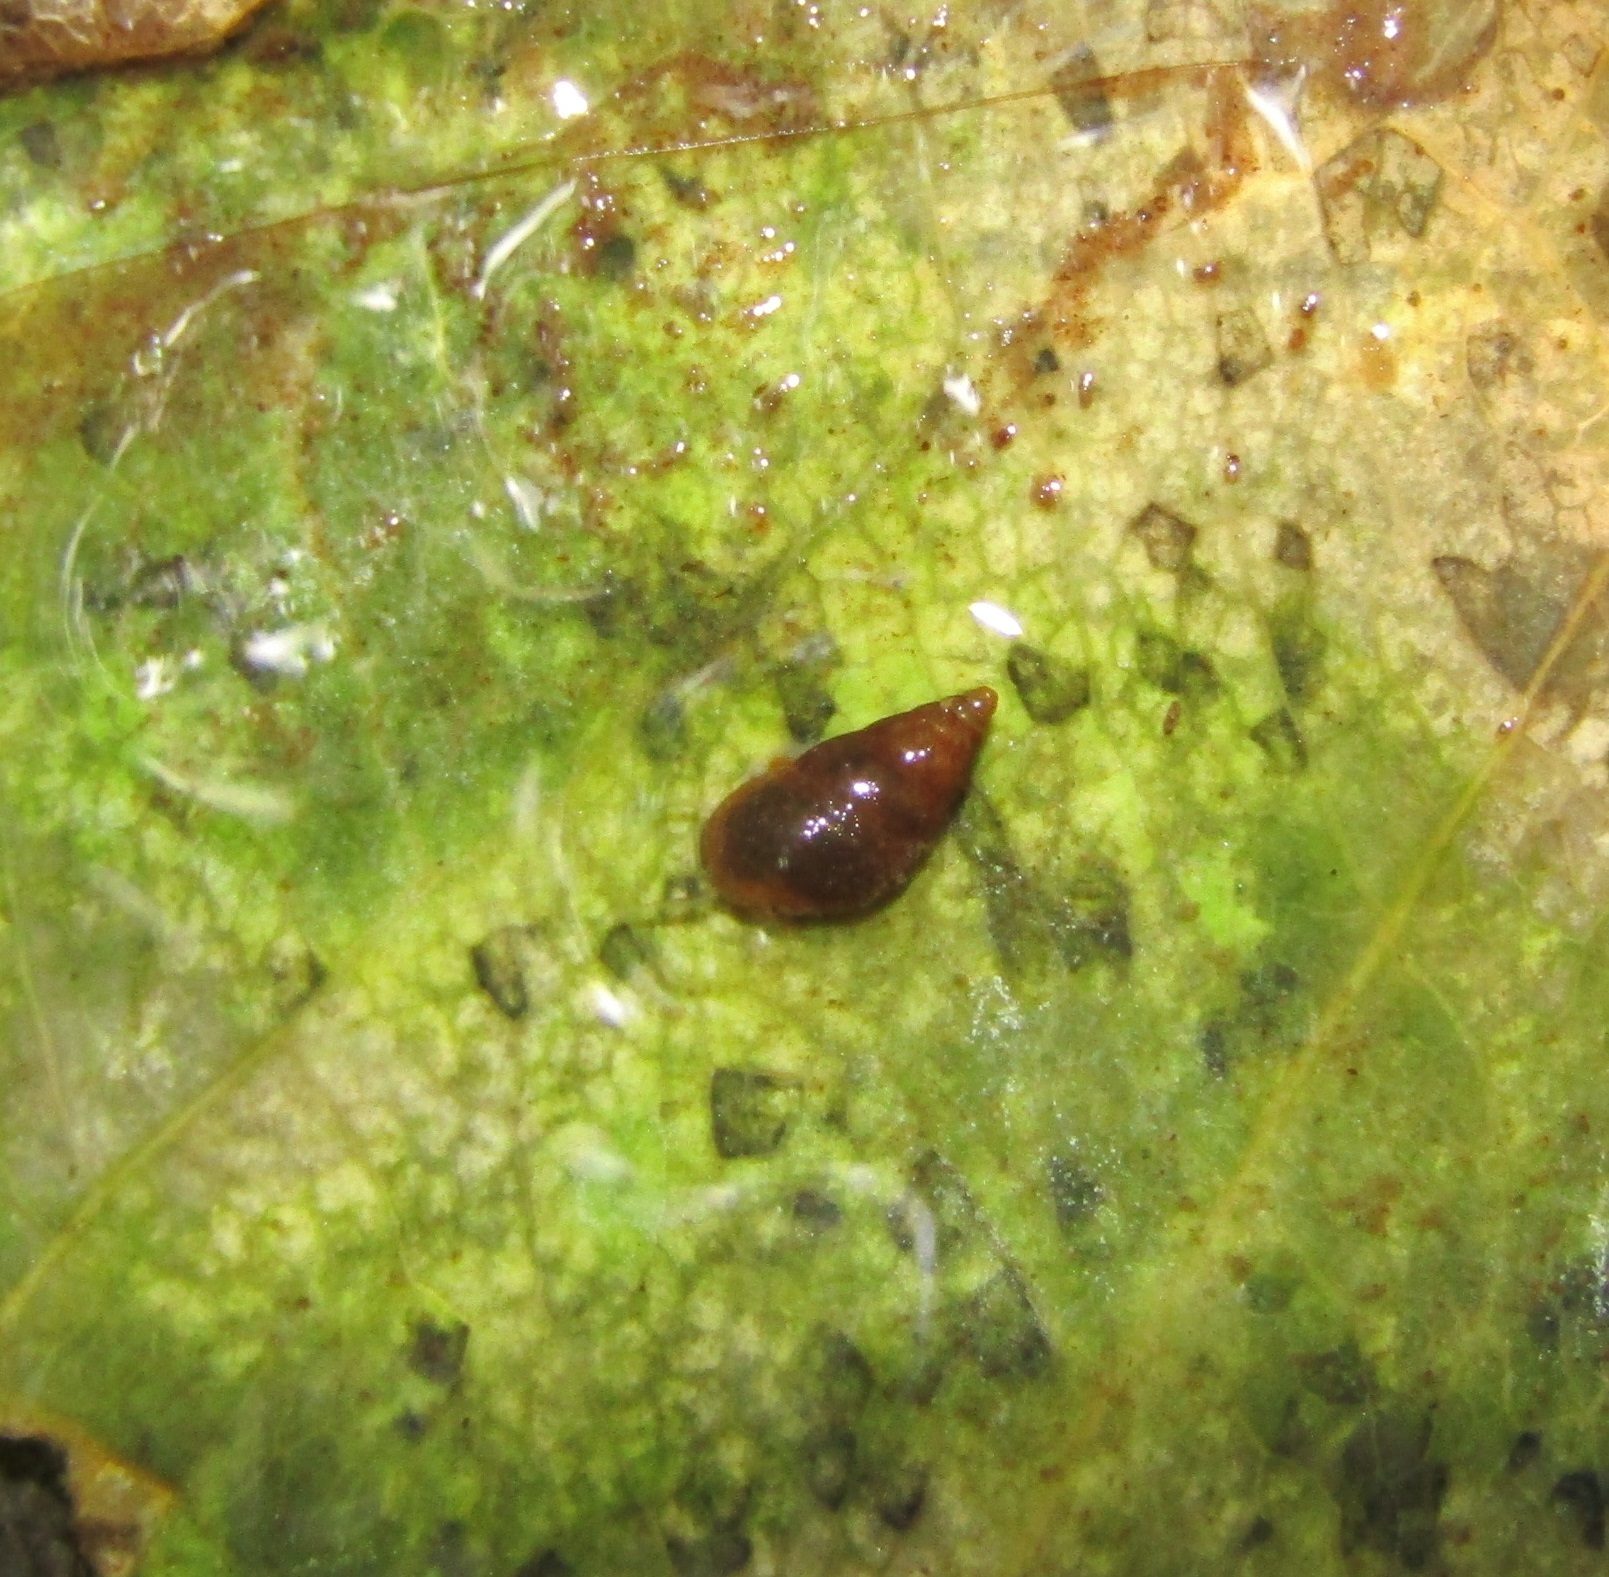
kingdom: Animalia
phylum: Mollusca
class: Gastropoda
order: Littorinimorpha
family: Tateidae
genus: Potamopyrgus
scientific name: Potamopyrgus antipodarum
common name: Jenkins' spire snail
